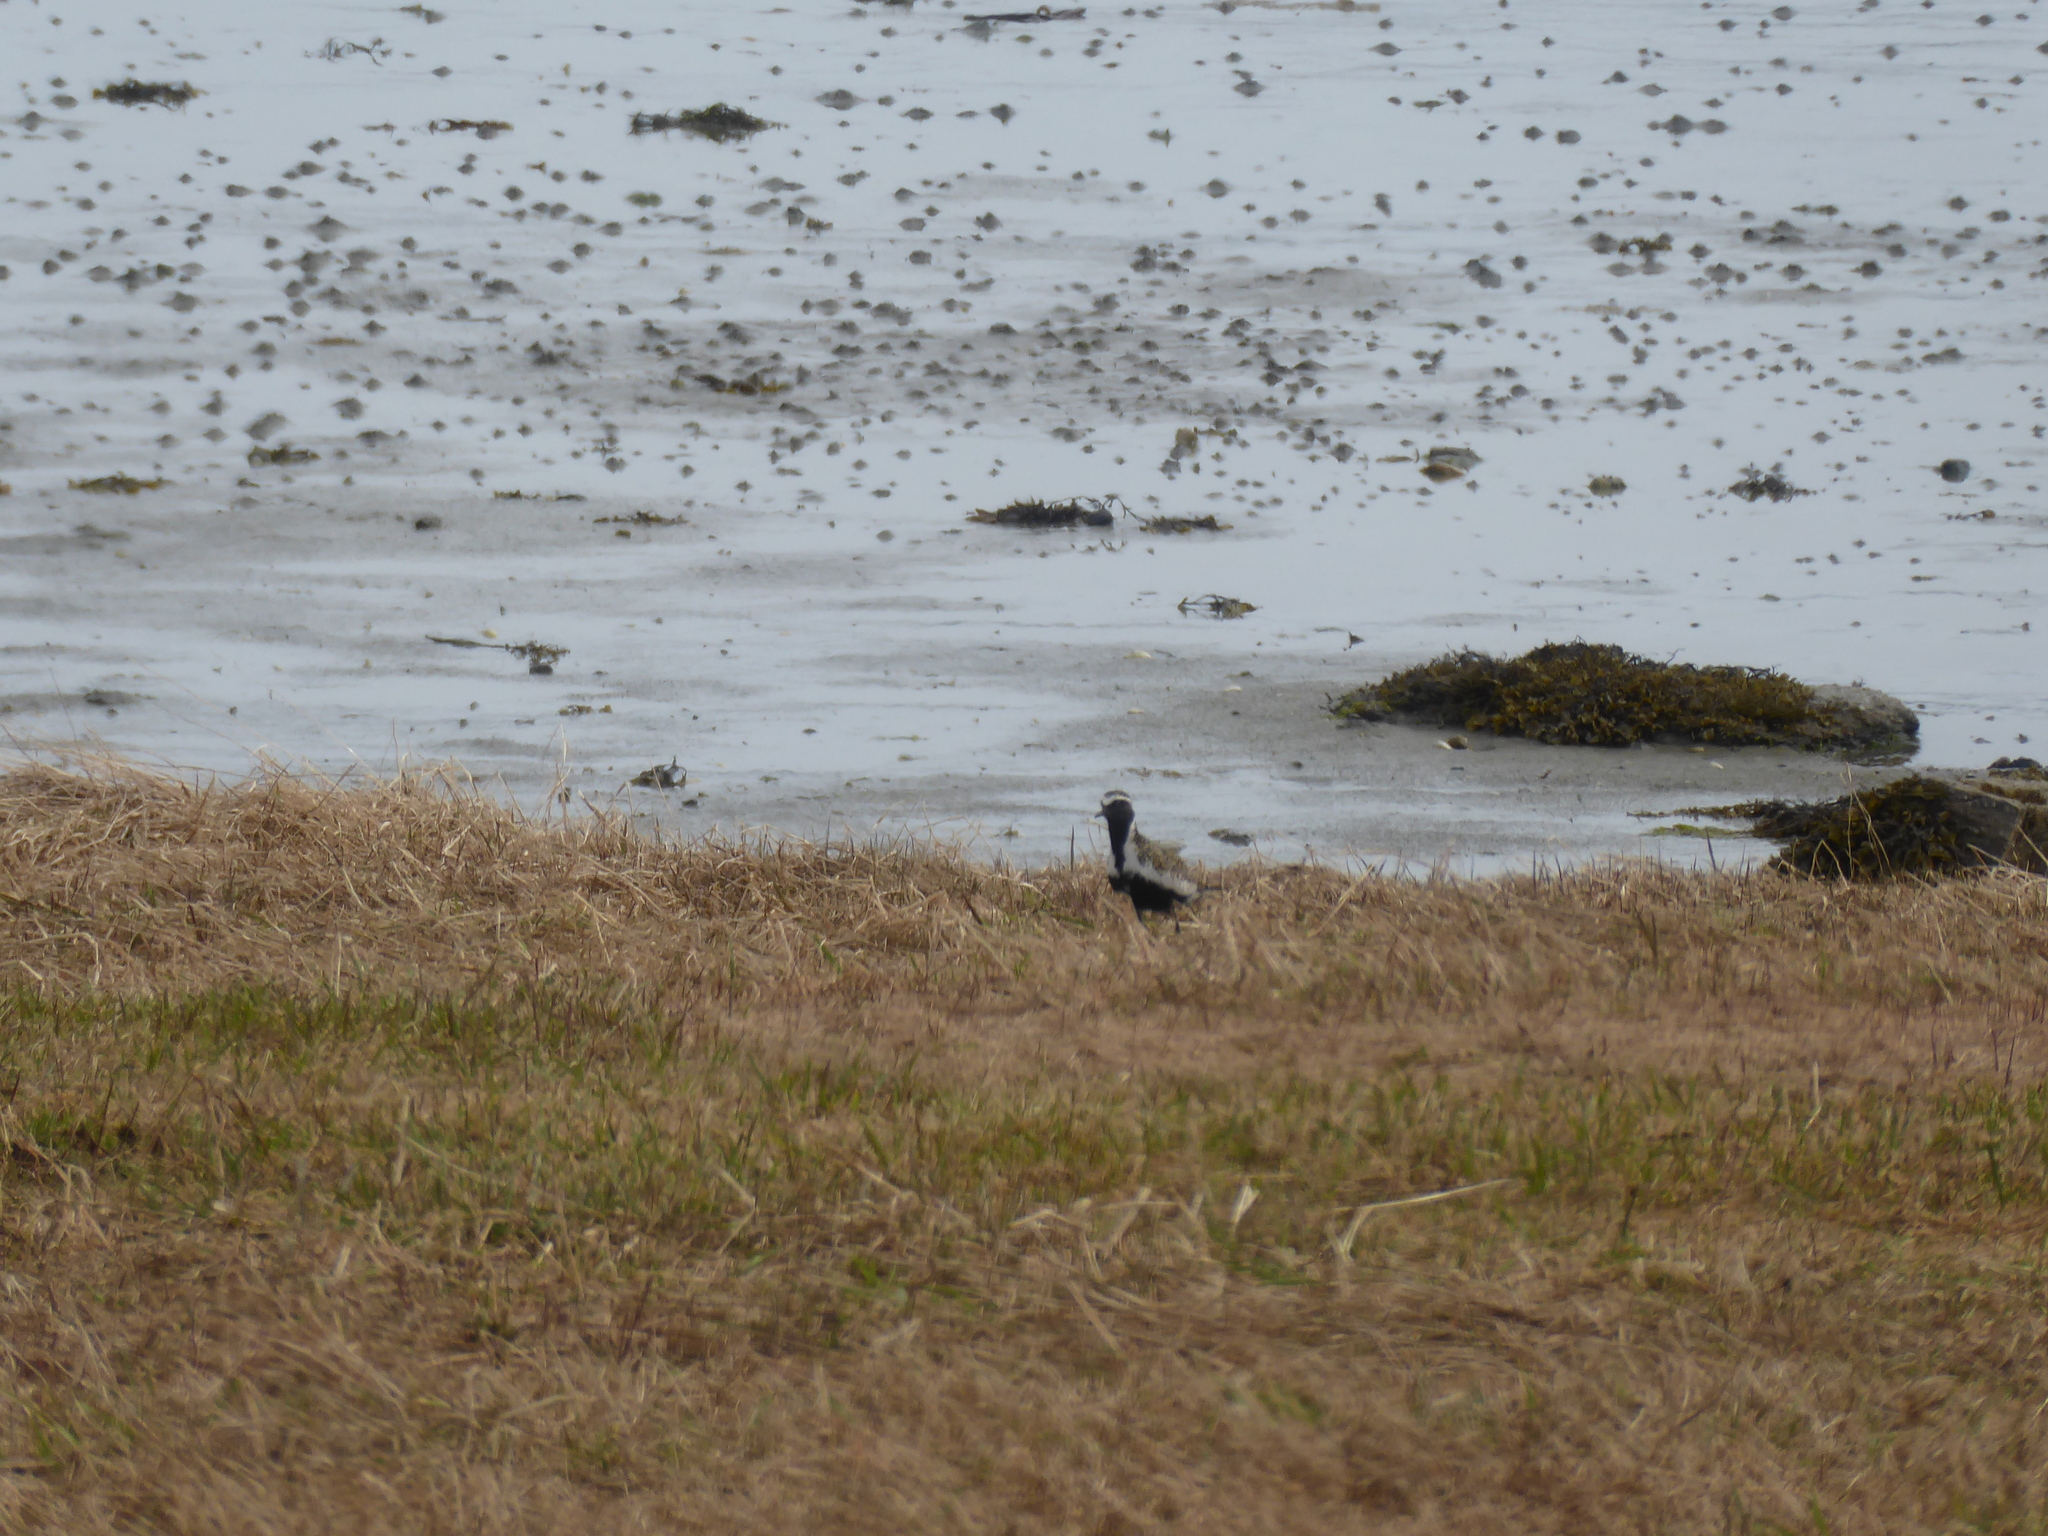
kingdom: Animalia
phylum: Chordata
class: Aves
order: Charadriiformes
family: Charadriidae
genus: Pluvialis
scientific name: Pluvialis apricaria
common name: European golden plover
